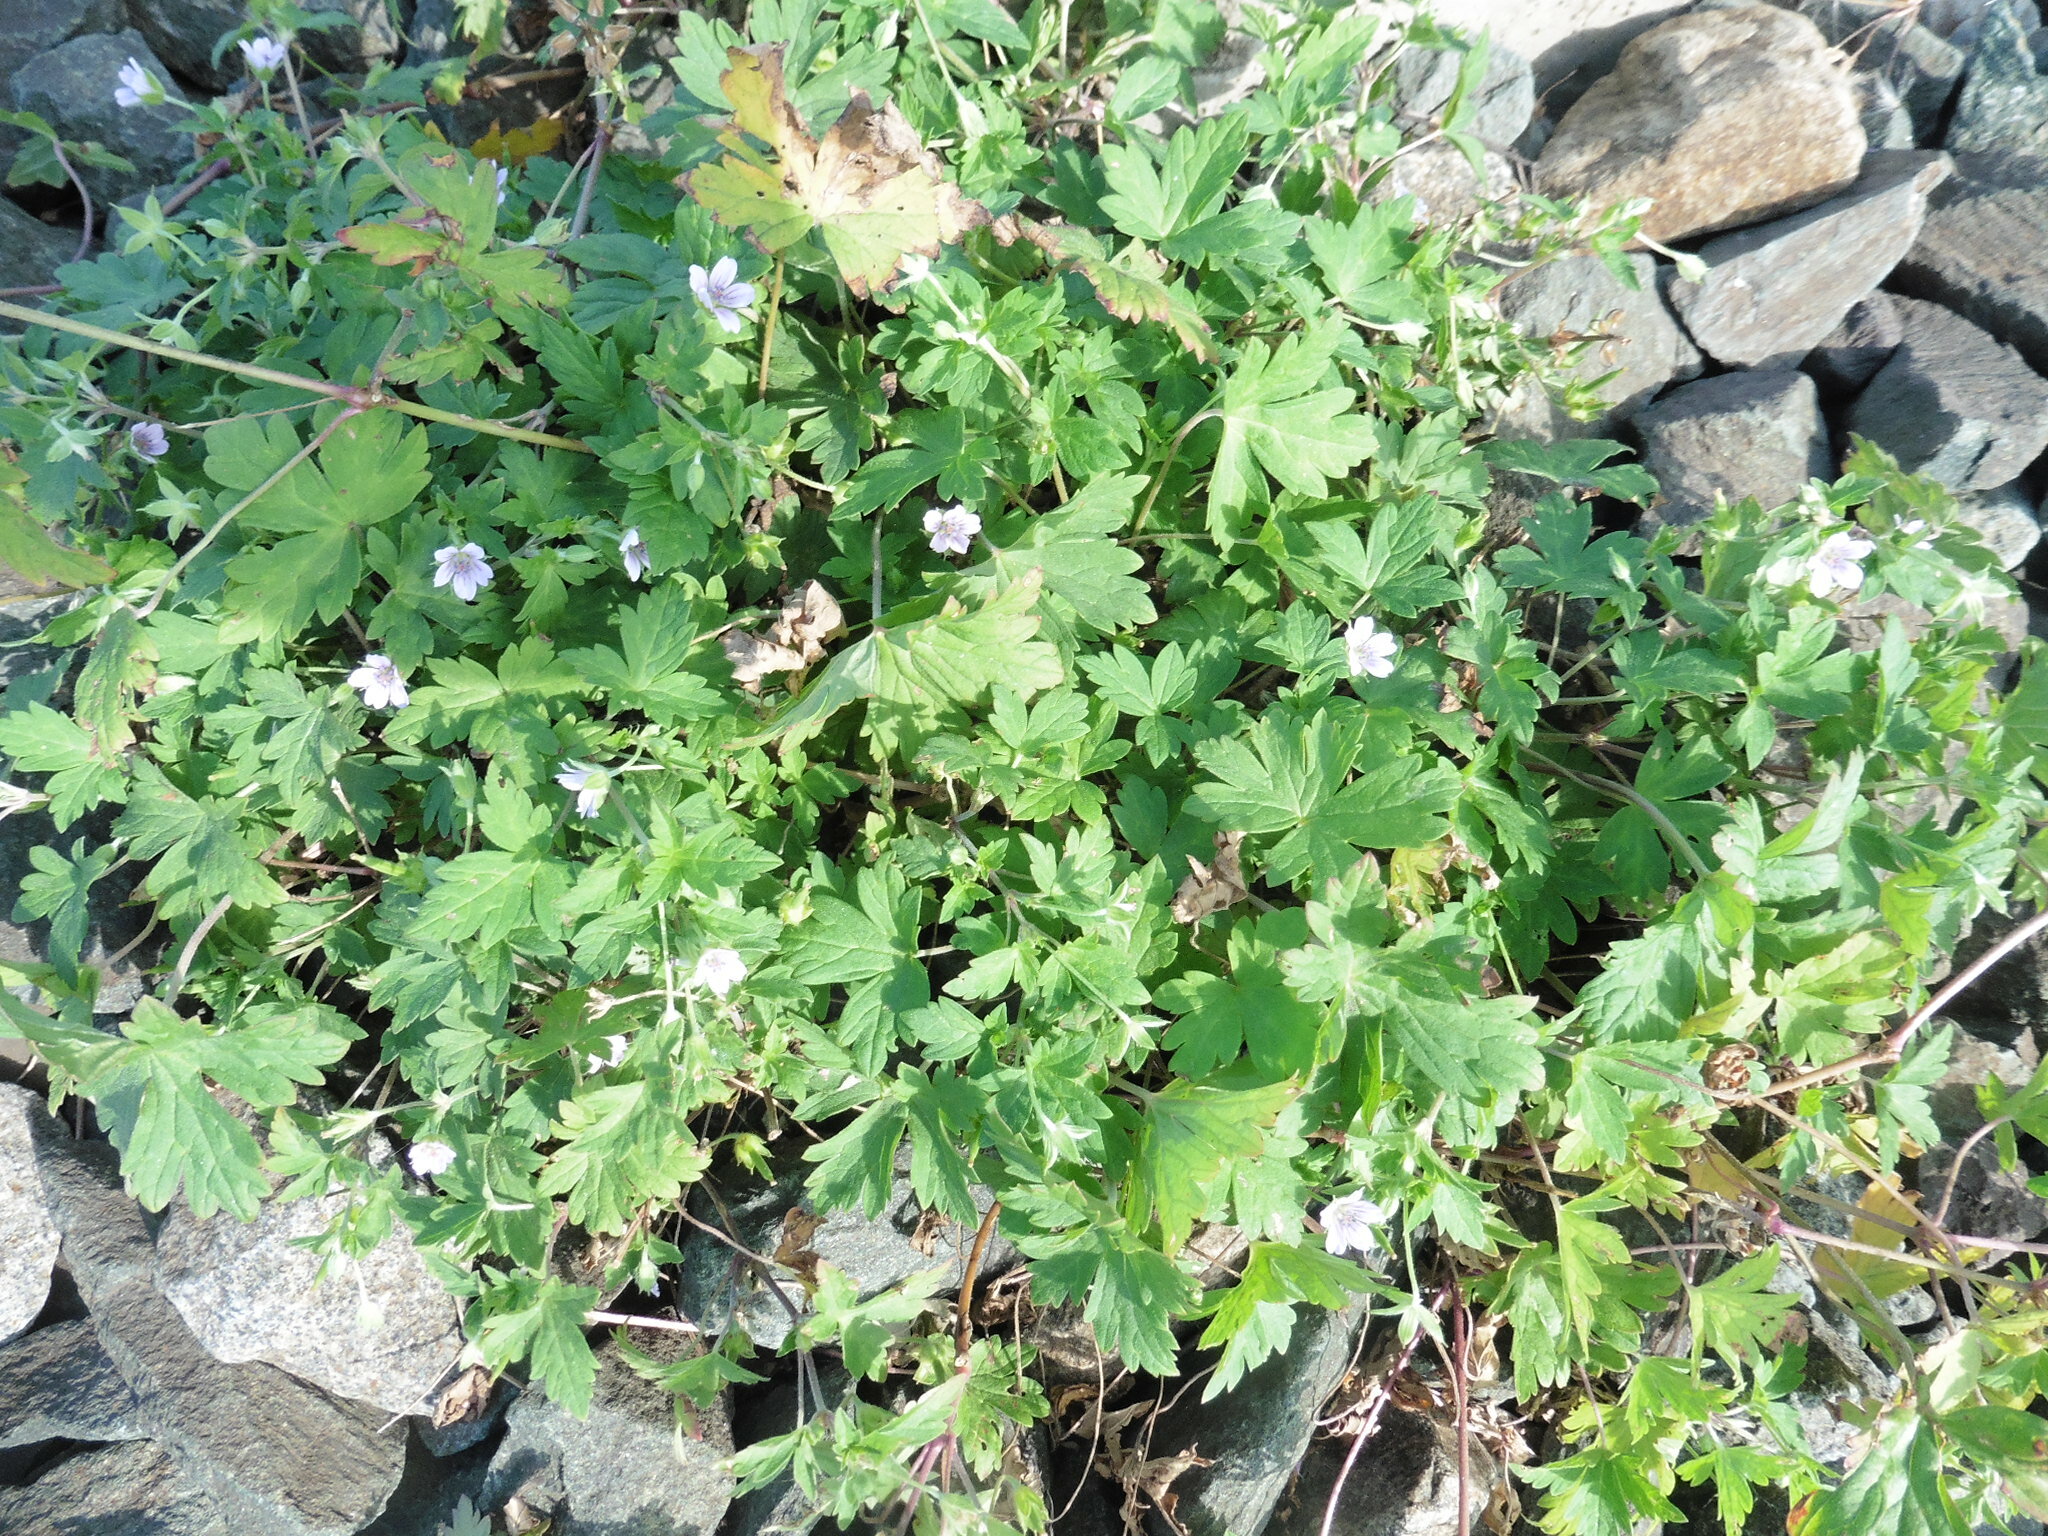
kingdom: Plantae
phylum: Tracheophyta
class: Magnoliopsida
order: Geraniales
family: Geraniaceae
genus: Geranium
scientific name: Geranium sibiricum
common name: Siberian crane's-bill
